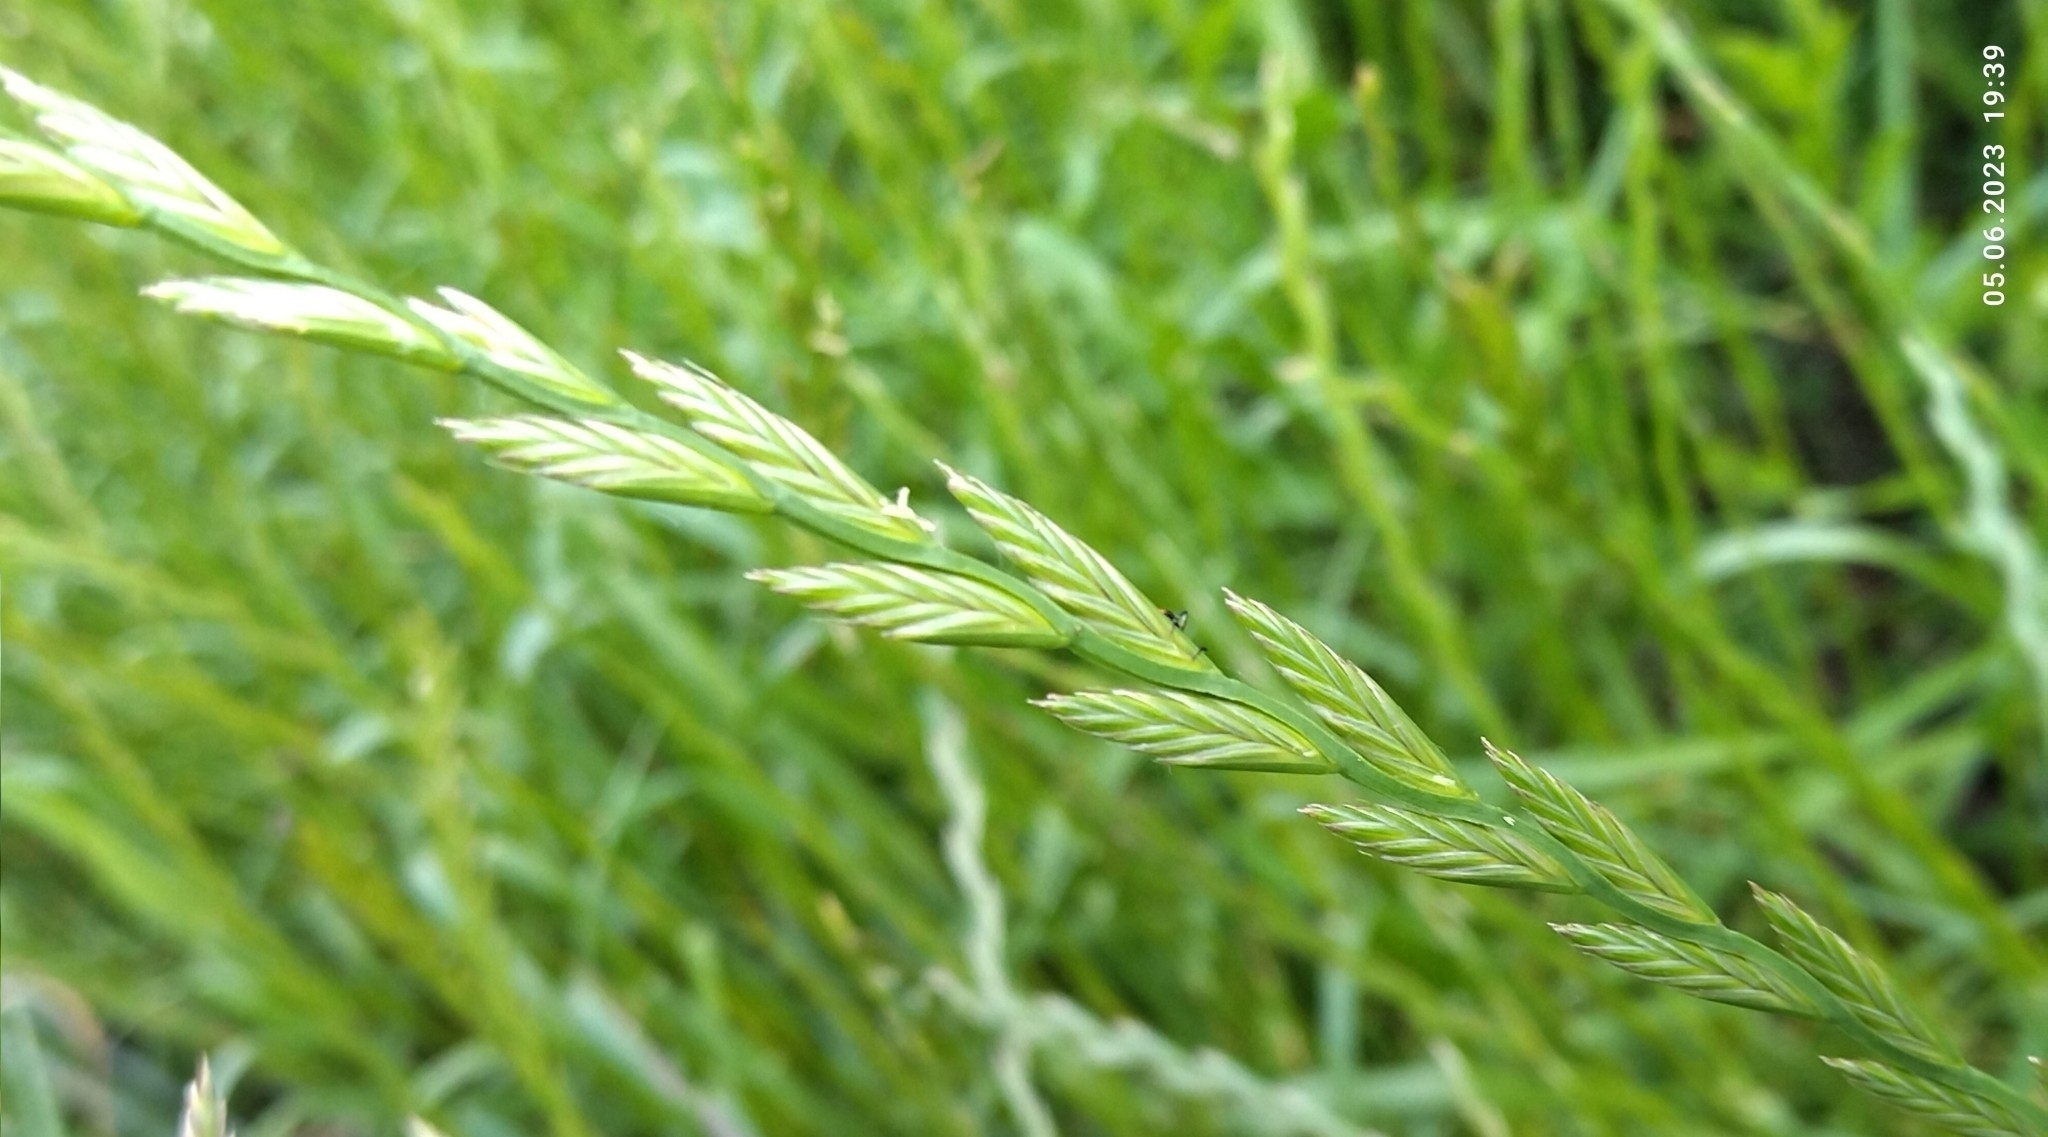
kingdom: Plantae
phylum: Tracheophyta
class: Liliopsida
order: Poales
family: Poaceae
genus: Lolium
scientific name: Lolium perenne
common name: Perennial ryegrass
